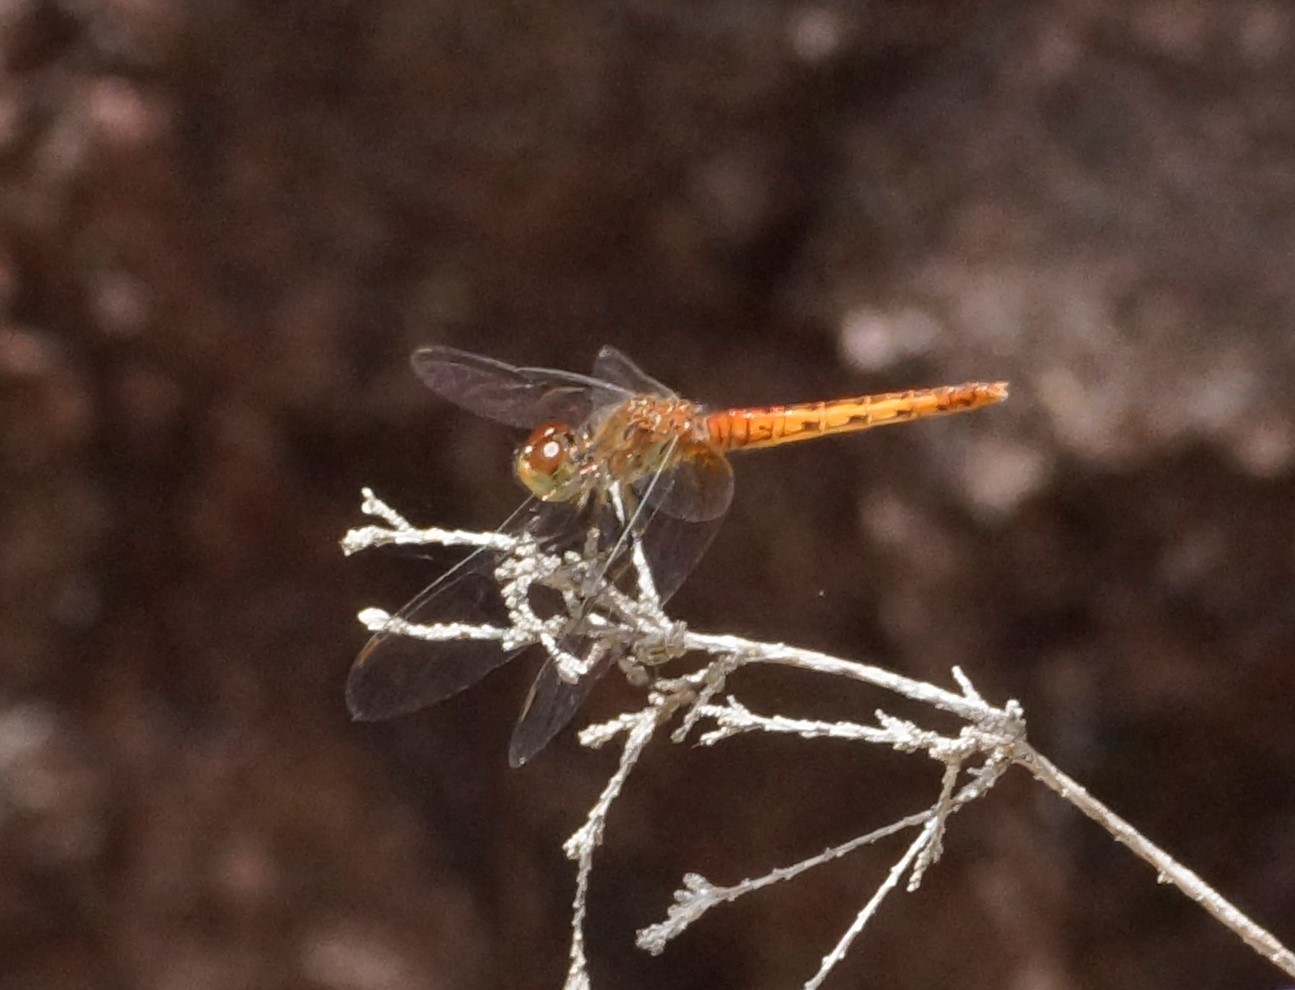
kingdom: Animalia
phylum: Arthropoda
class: Insecta
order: Odonata
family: Libellulidae
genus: Nannodiplax
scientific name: Nannodiplax rubra
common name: Pygmy percher
